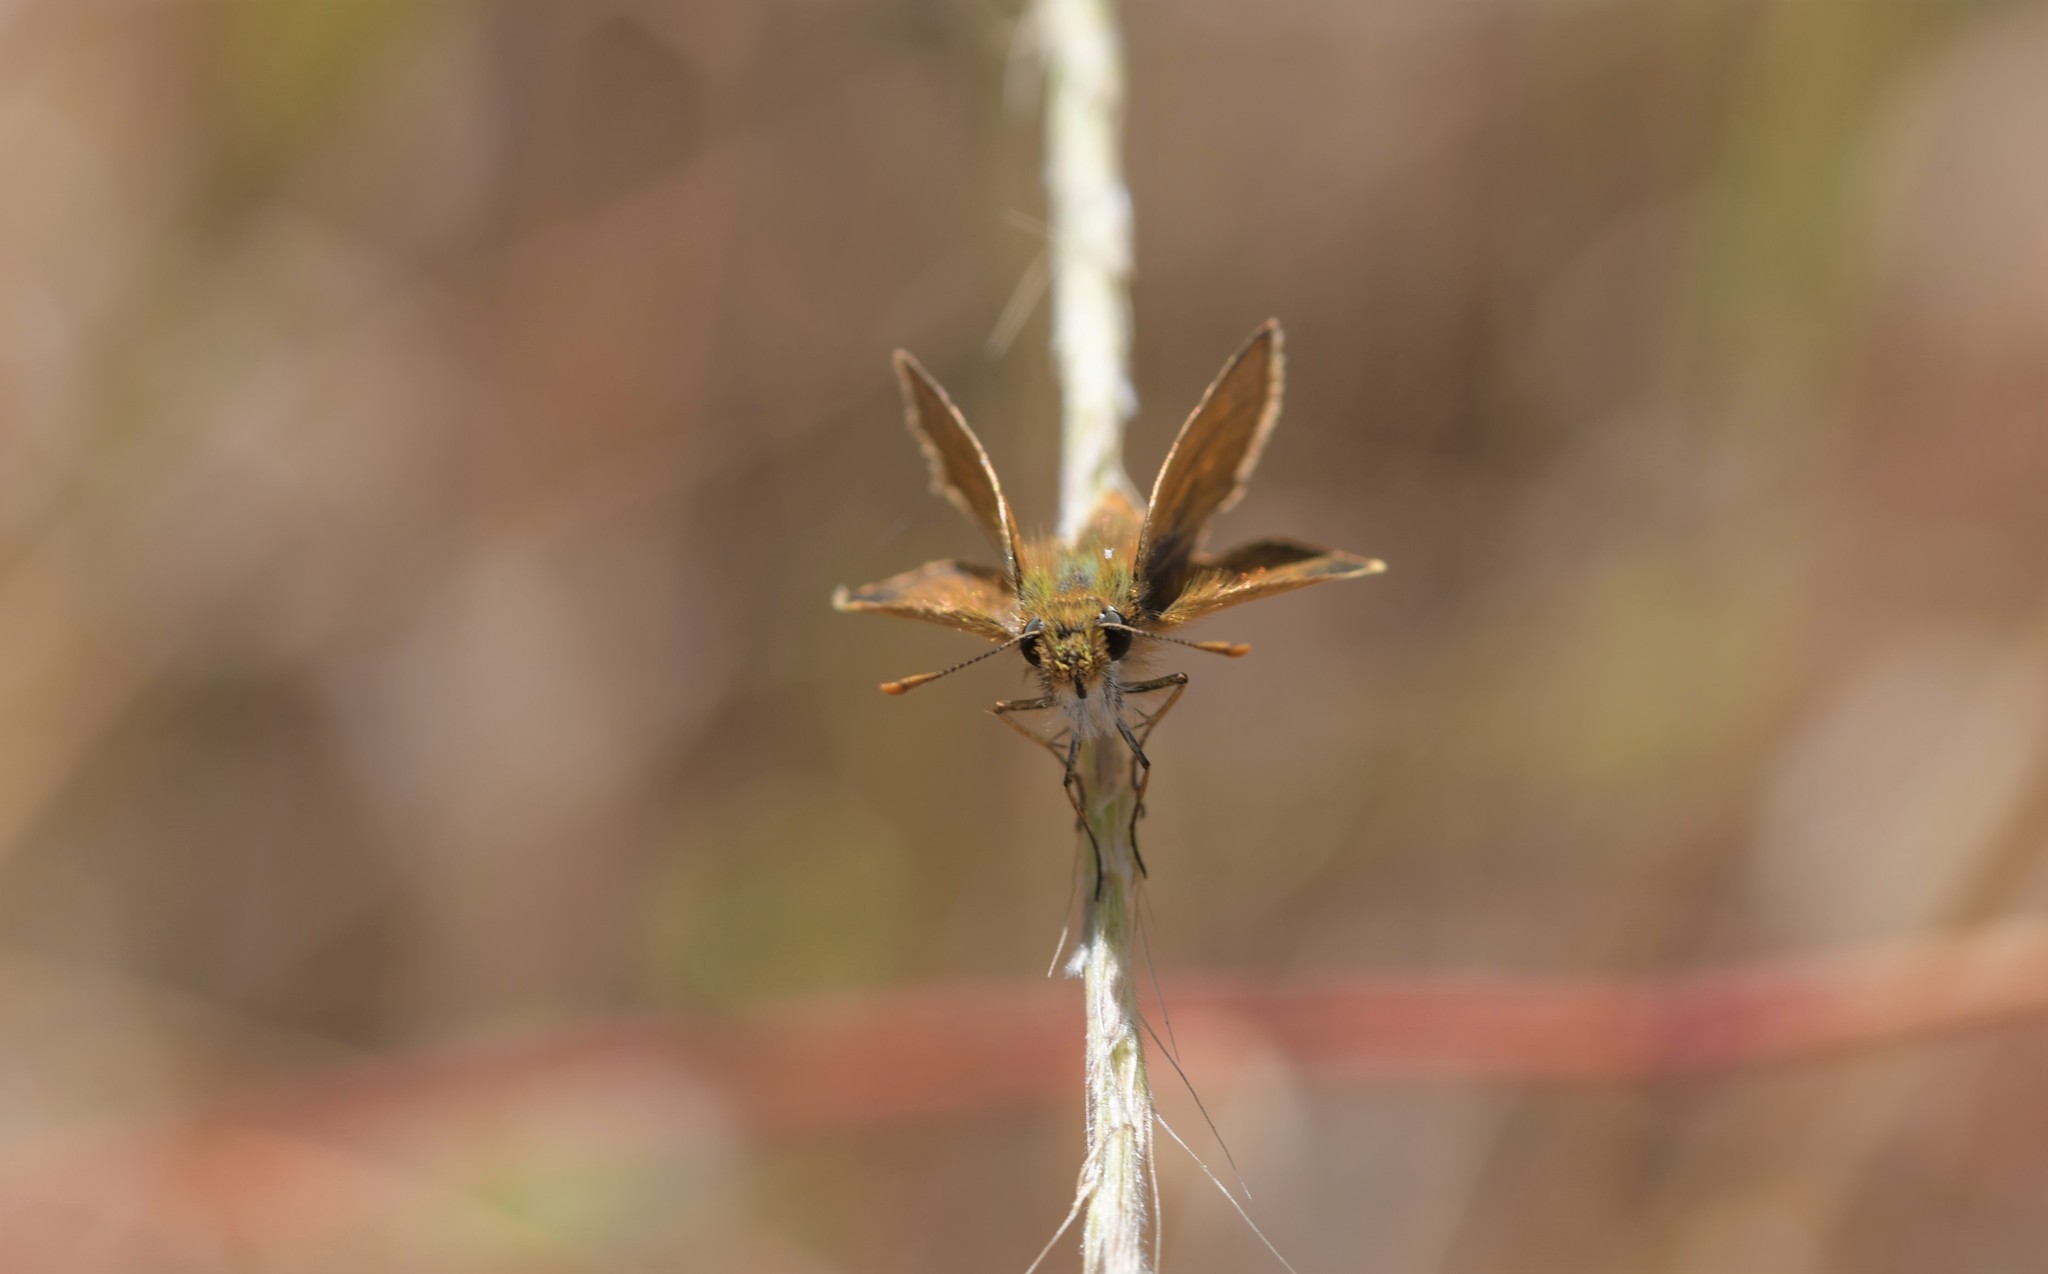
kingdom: Animalia
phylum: Arthropoda
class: Insecta
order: Lepidoptera
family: Hesperiidae
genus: Thymelicus
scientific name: Thymelicus acteon
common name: Lulworth skipper
